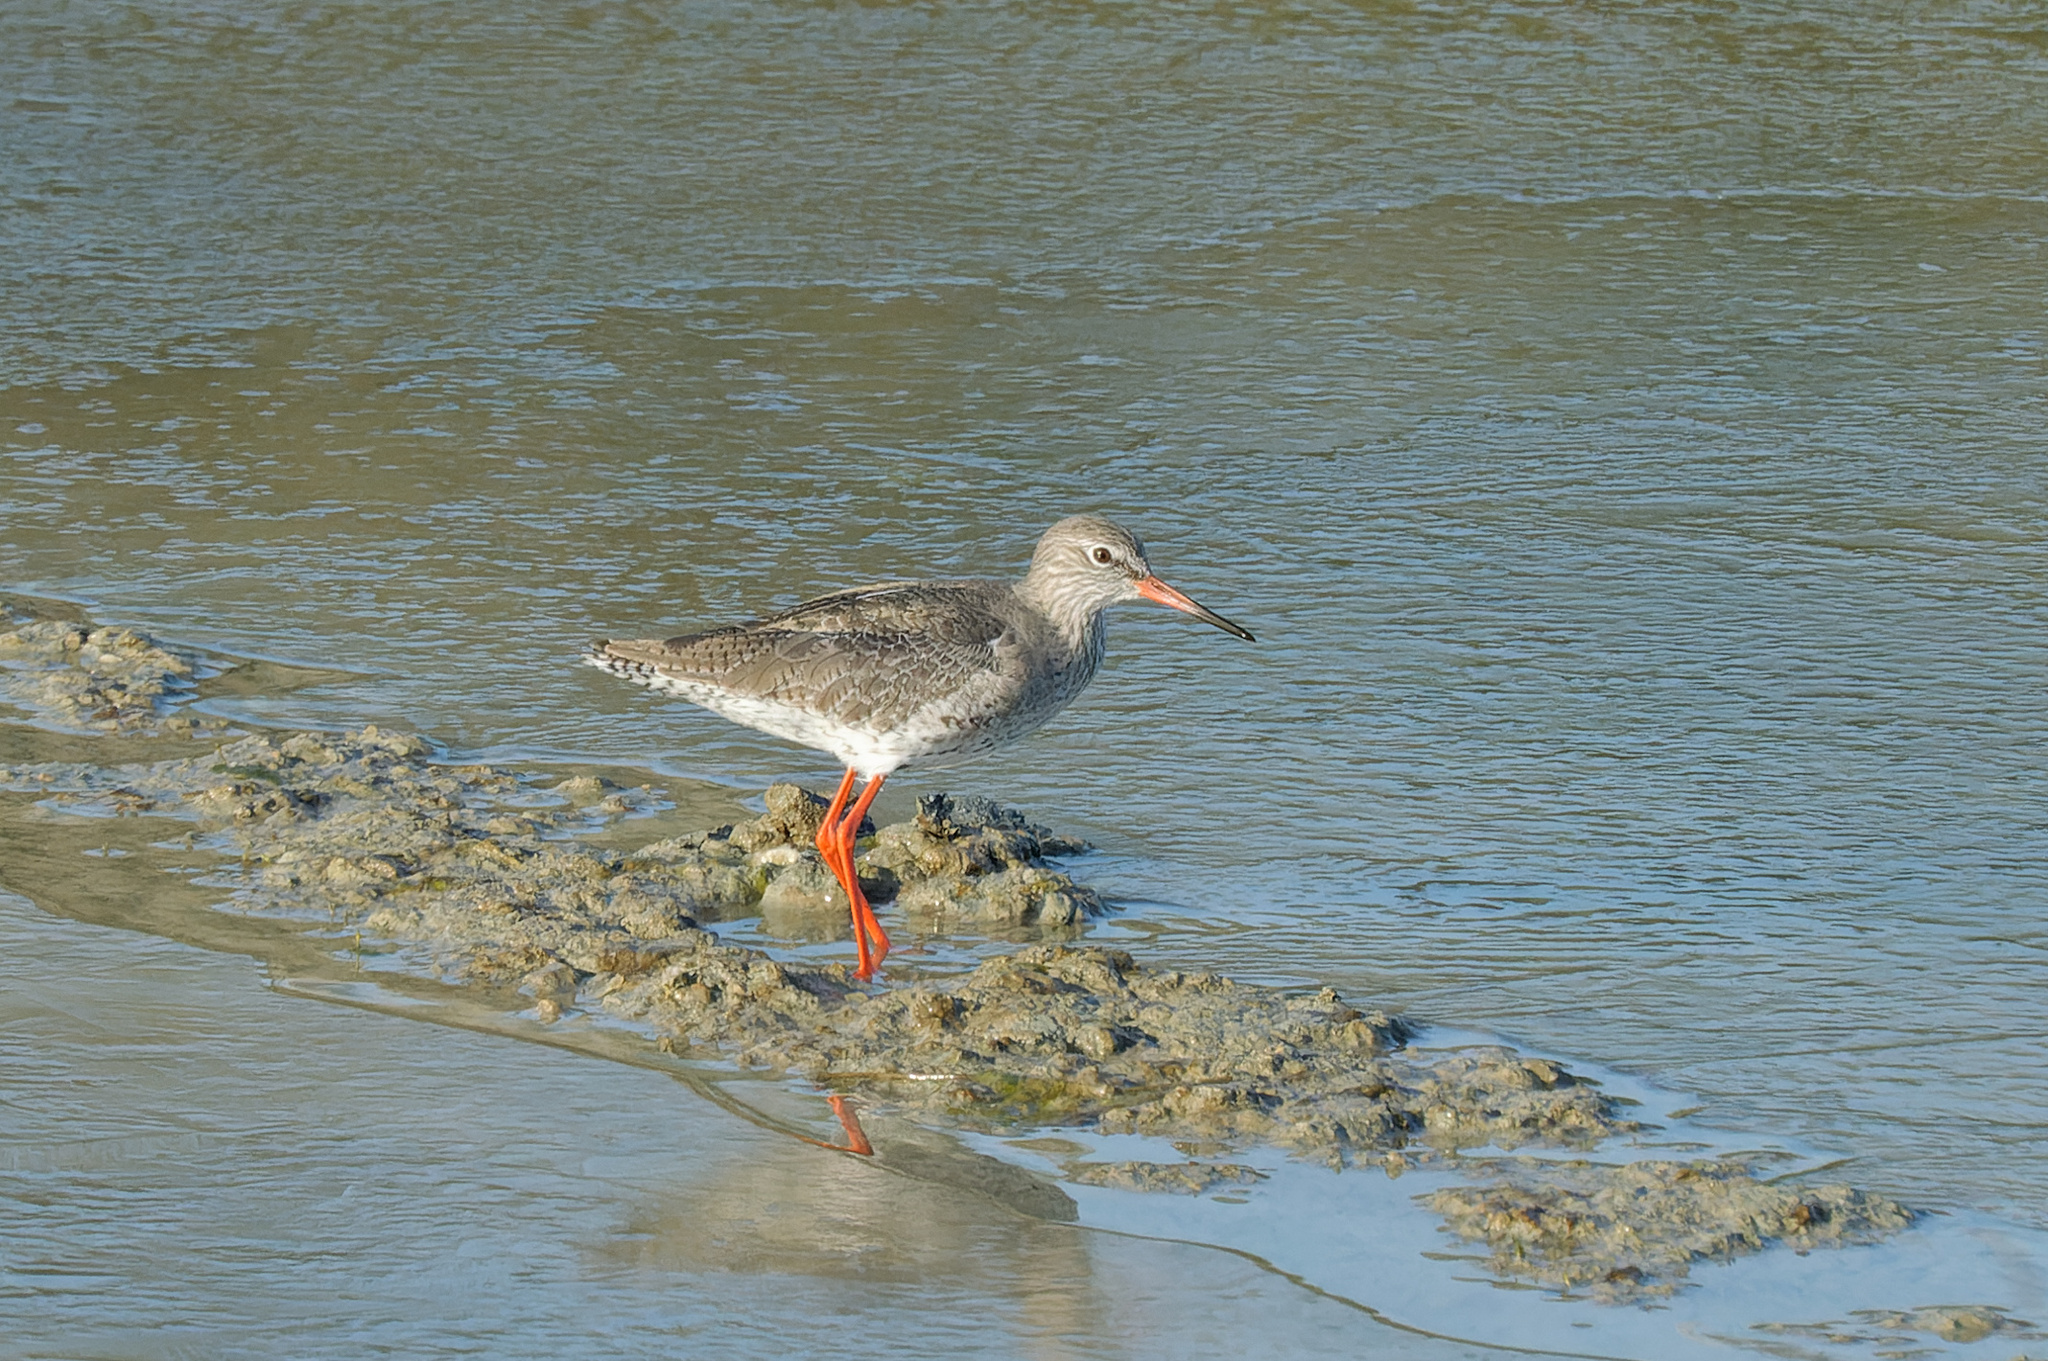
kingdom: Animalia
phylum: Chordata
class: Aves
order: Charadriiformes
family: Scolopacidae
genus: Tringa
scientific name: Tringa totanus
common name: Common redshank
